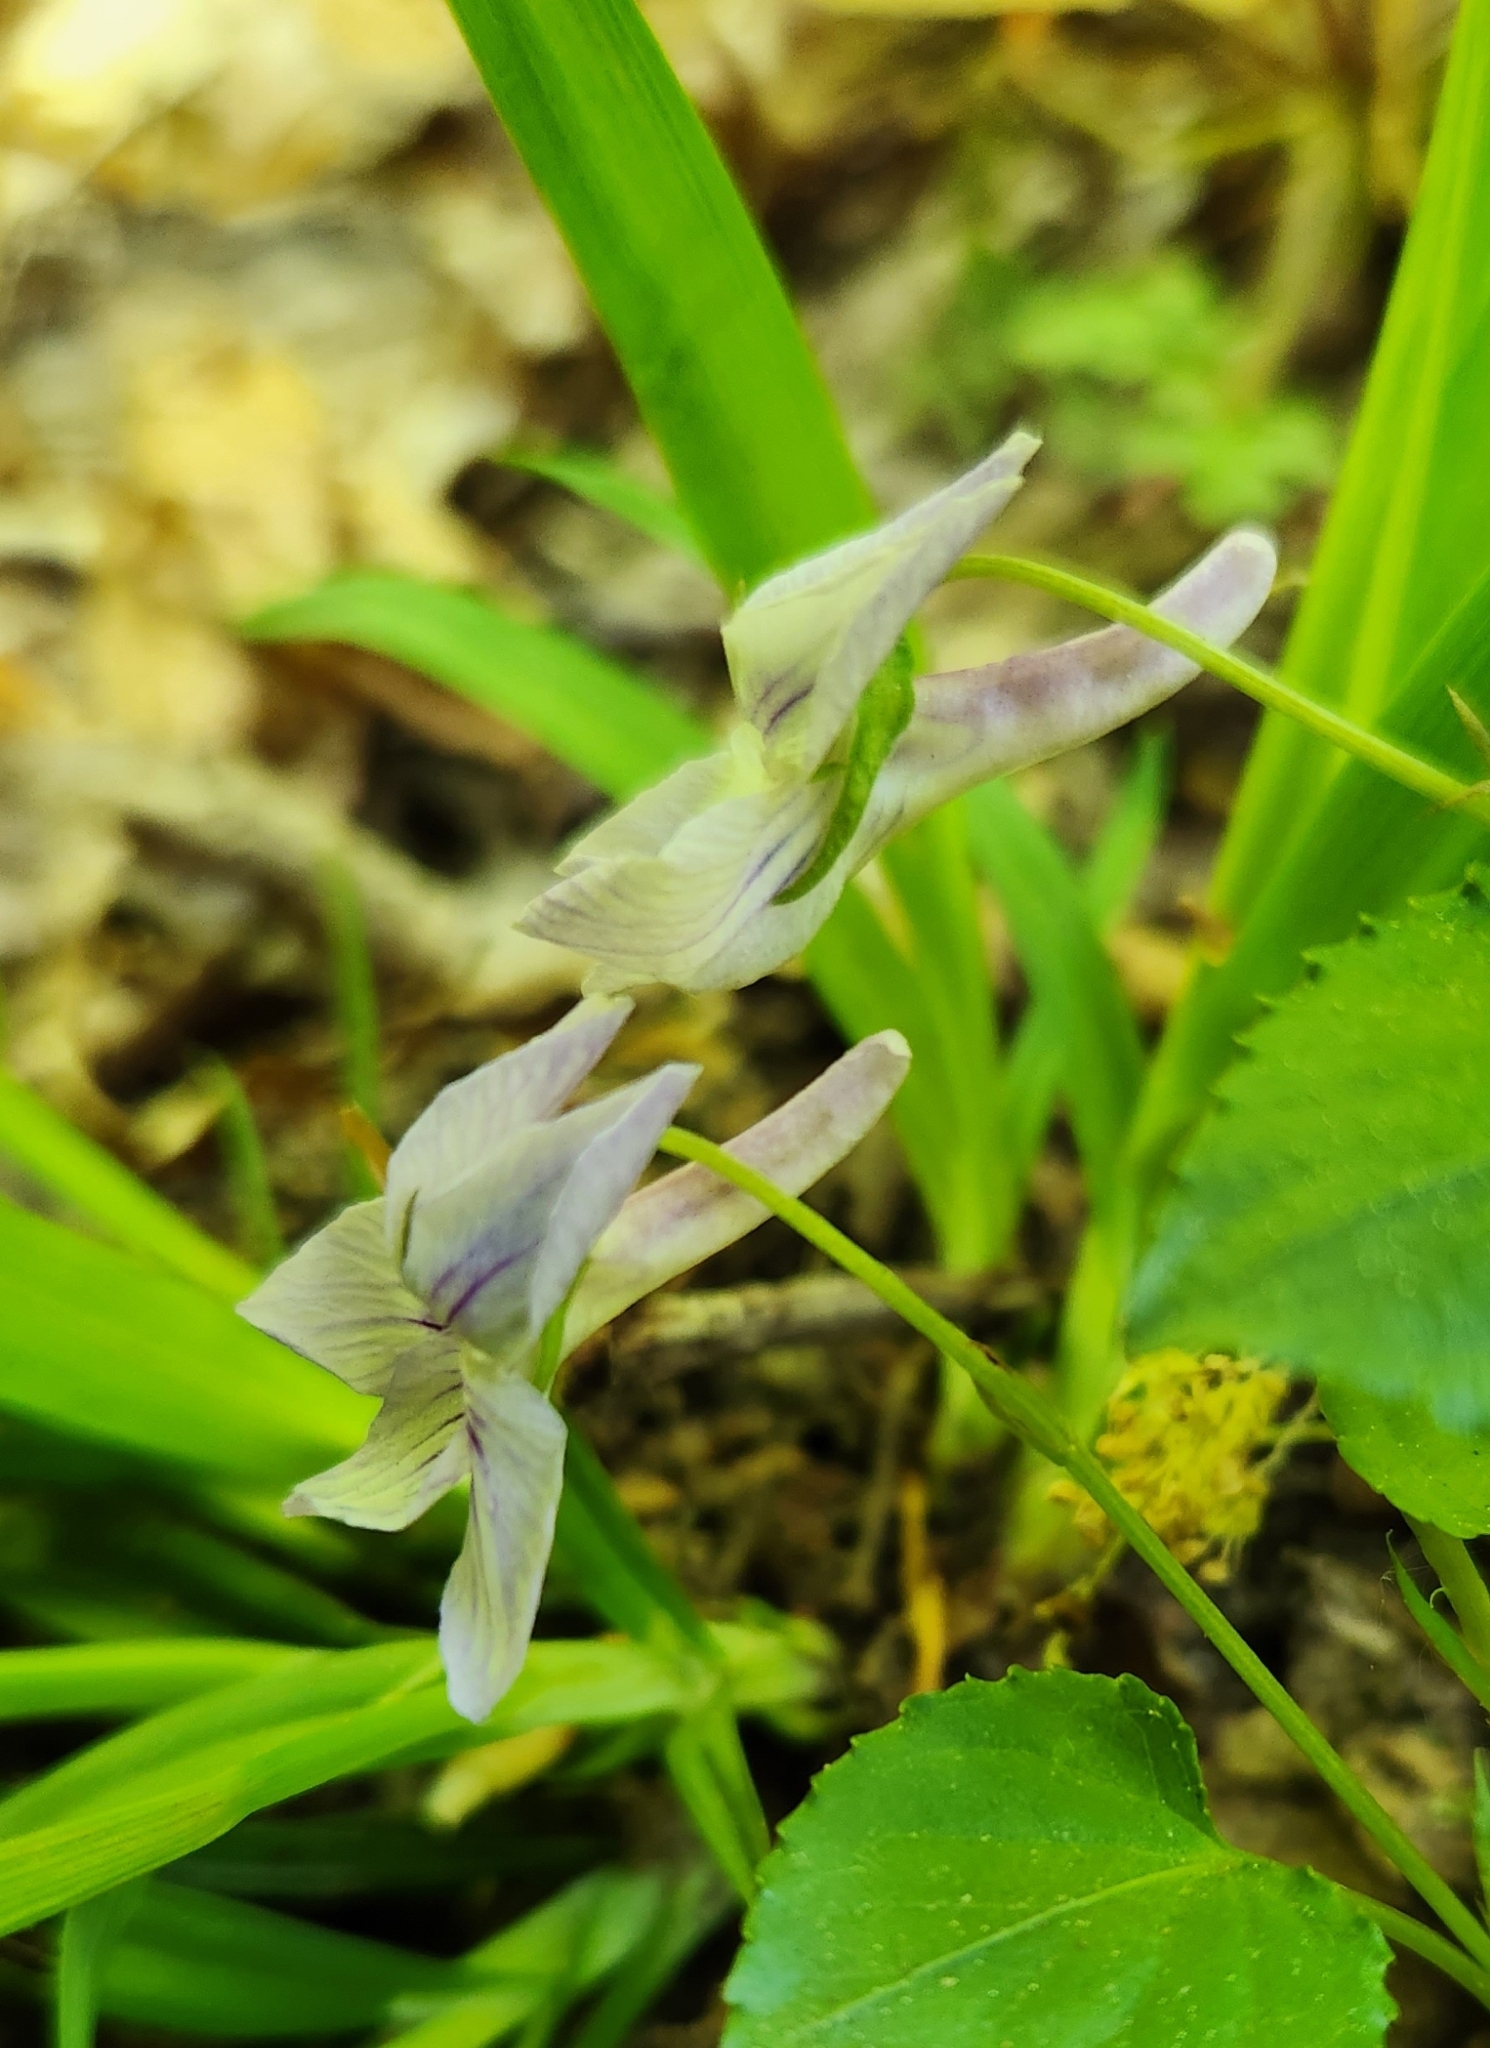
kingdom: Plantae
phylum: Tracheophyta
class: Magnoliopsida
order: Malpighiales
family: Violaceae
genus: Viola
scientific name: Viola rostrata
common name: Long-spur violet
